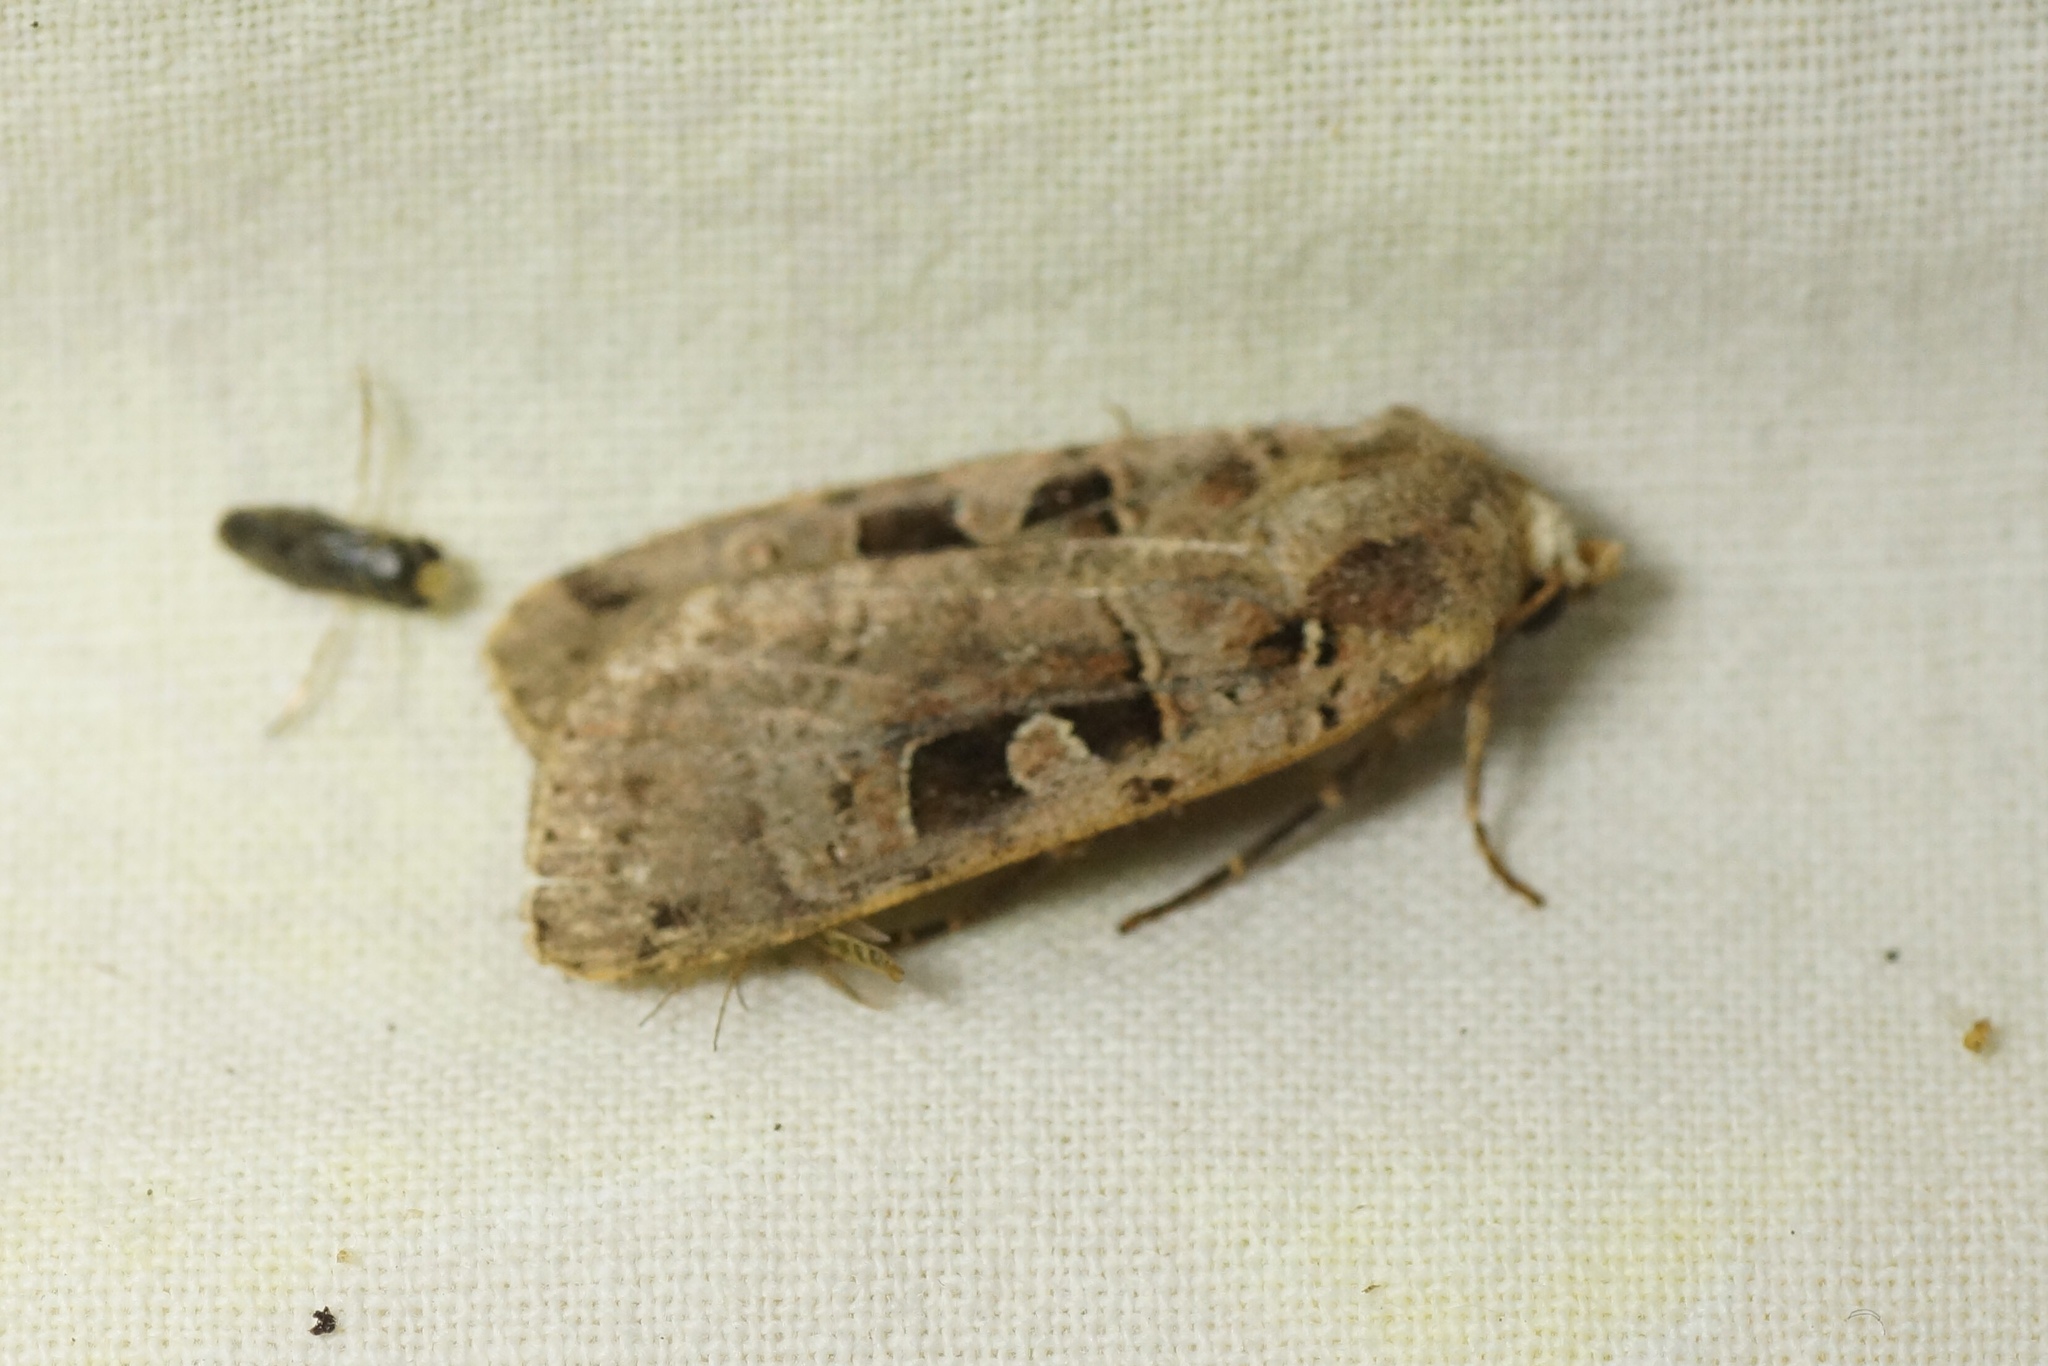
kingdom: Animalia
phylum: Arthropoda
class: Insecta
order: Lepidoptera
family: Noctuidae
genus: Xestia
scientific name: Xestia triangulum
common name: Double square-spot
